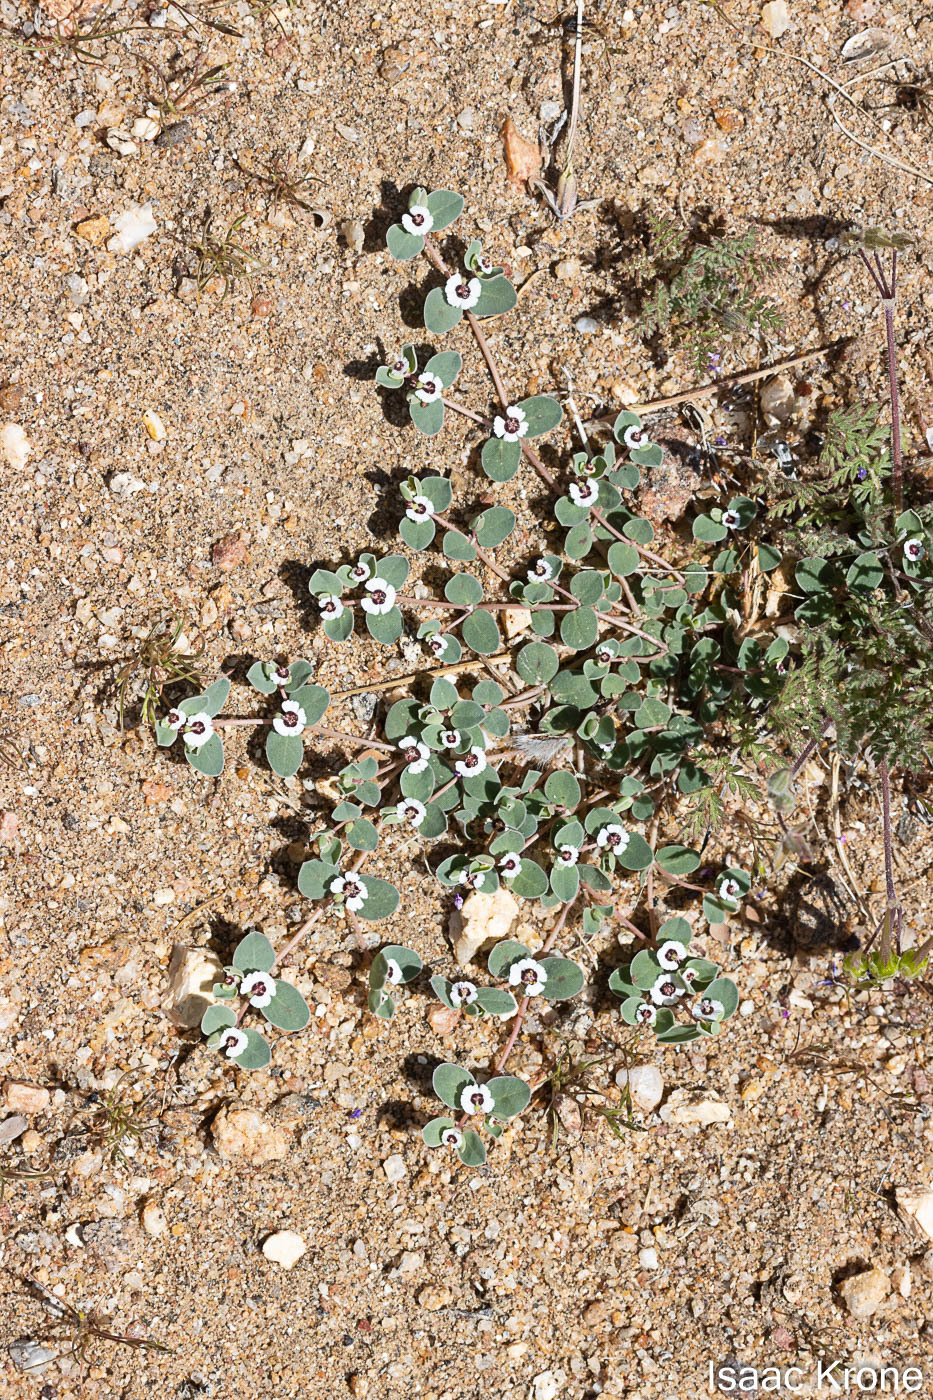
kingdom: Plantae
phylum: Tracheophyta
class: Magnoliopsida
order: Malpighiales
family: Euphorbiaceae
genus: Euphorbia
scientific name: Euphorbia albomarginata
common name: Whitemargin sandmat
